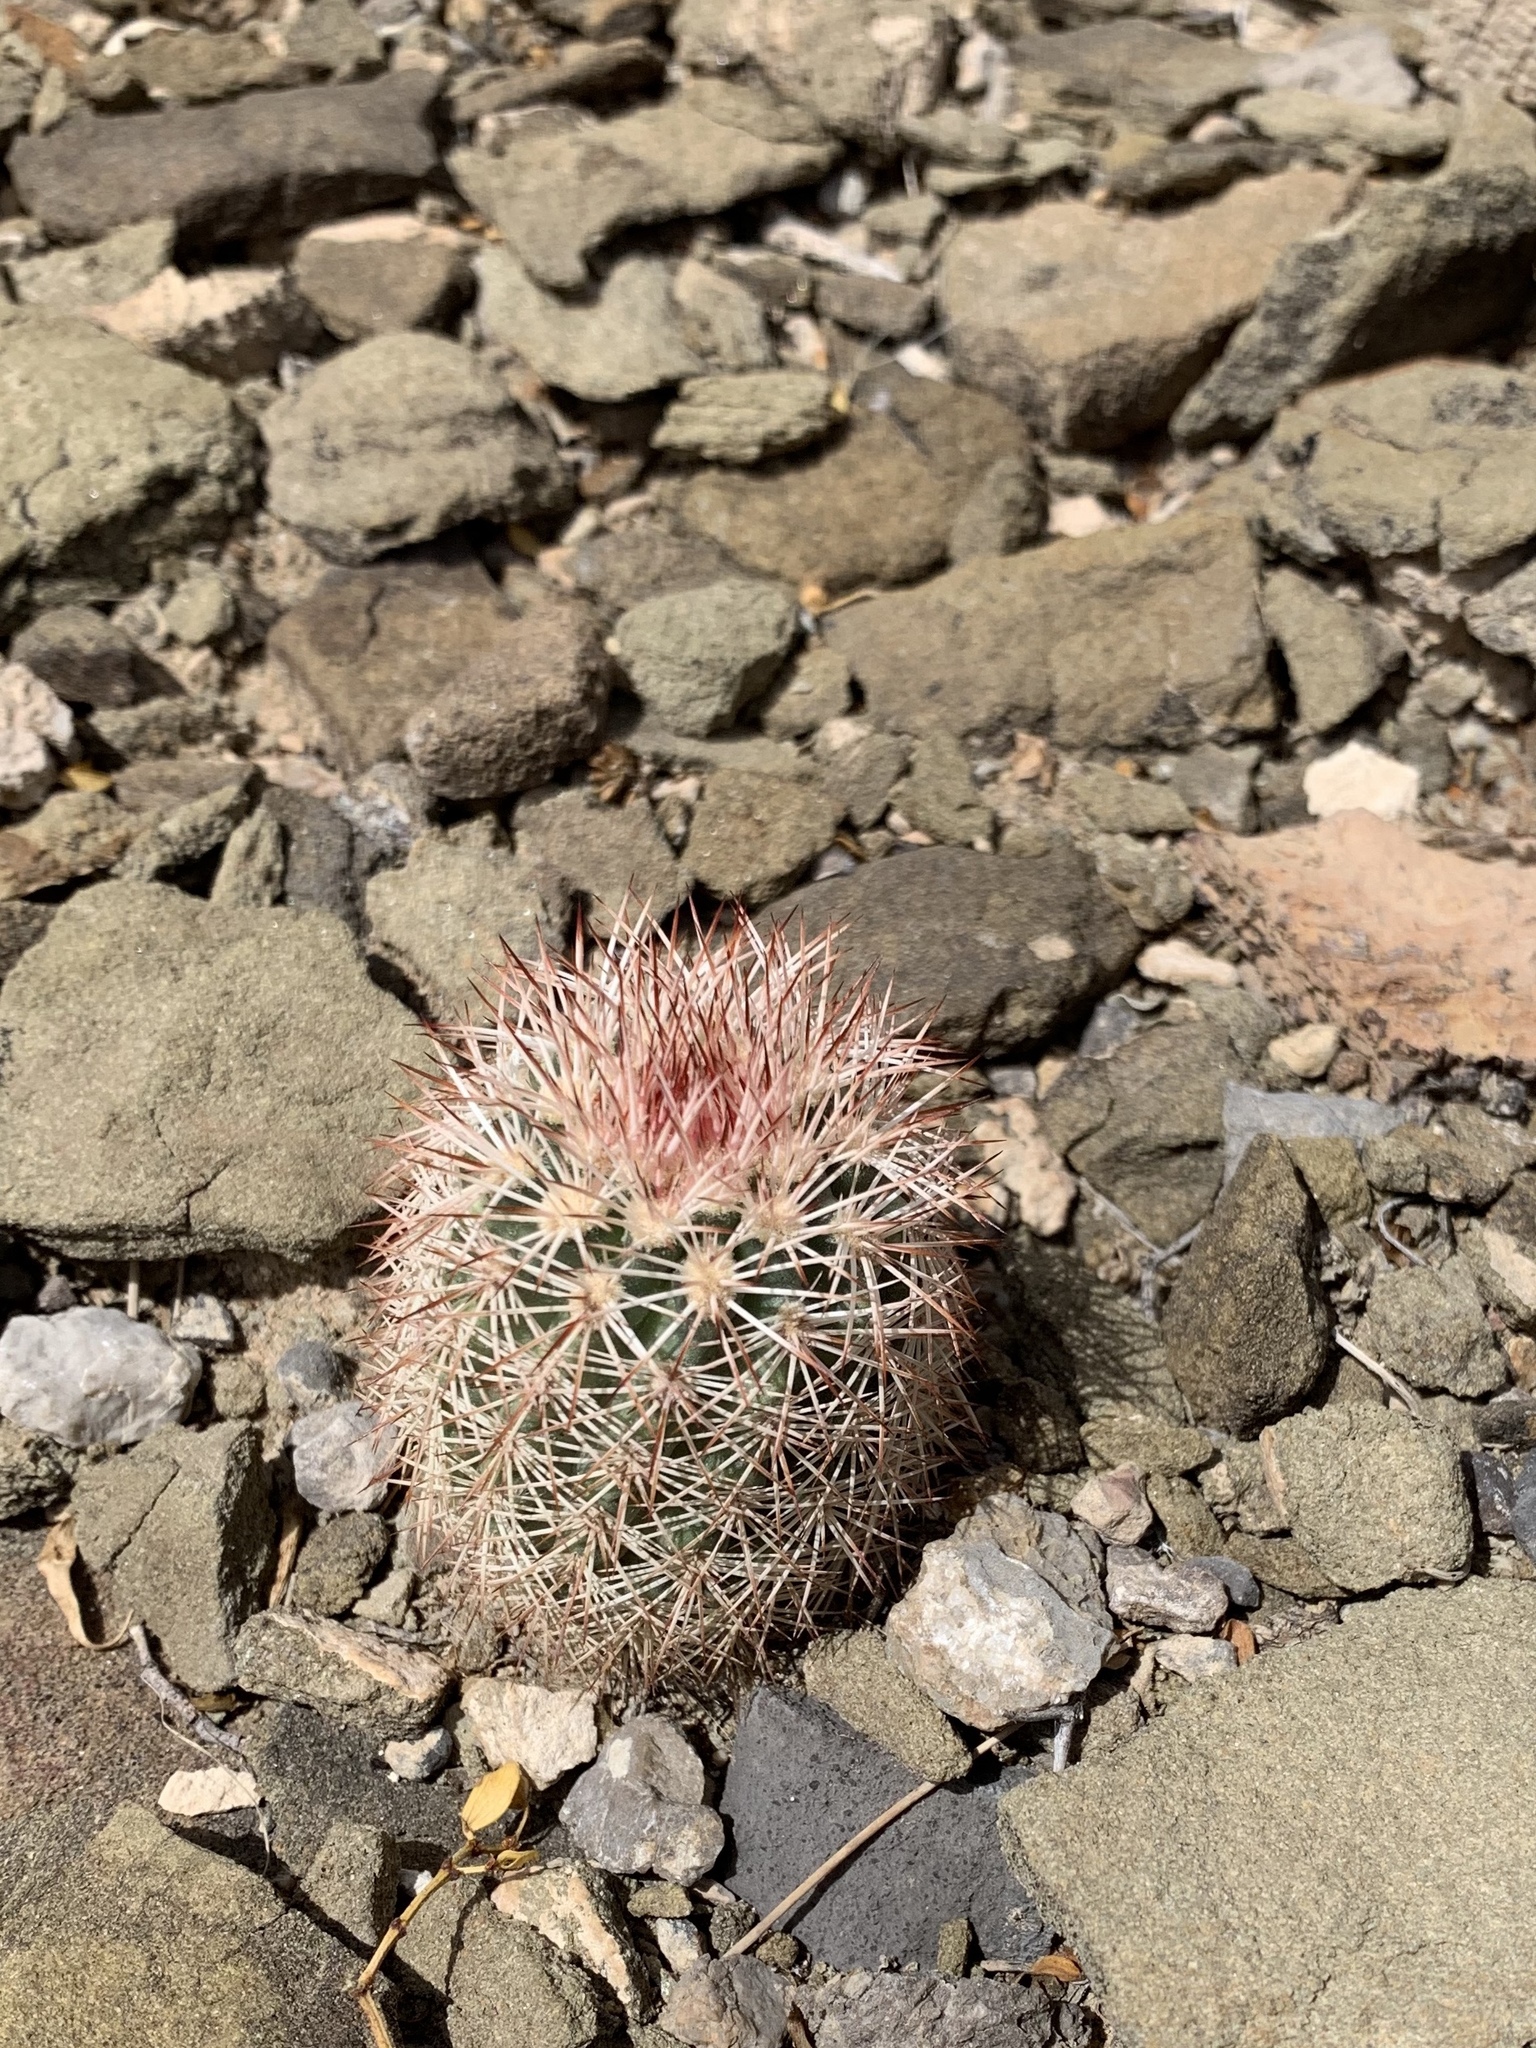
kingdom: Plantae
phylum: Tracheophyta
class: Magnoliopsida
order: Caryophyllales
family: Cactaceae
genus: Echinocereus
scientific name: Echinocereus dasyacanthus
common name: Spiny hedgehog cactus
